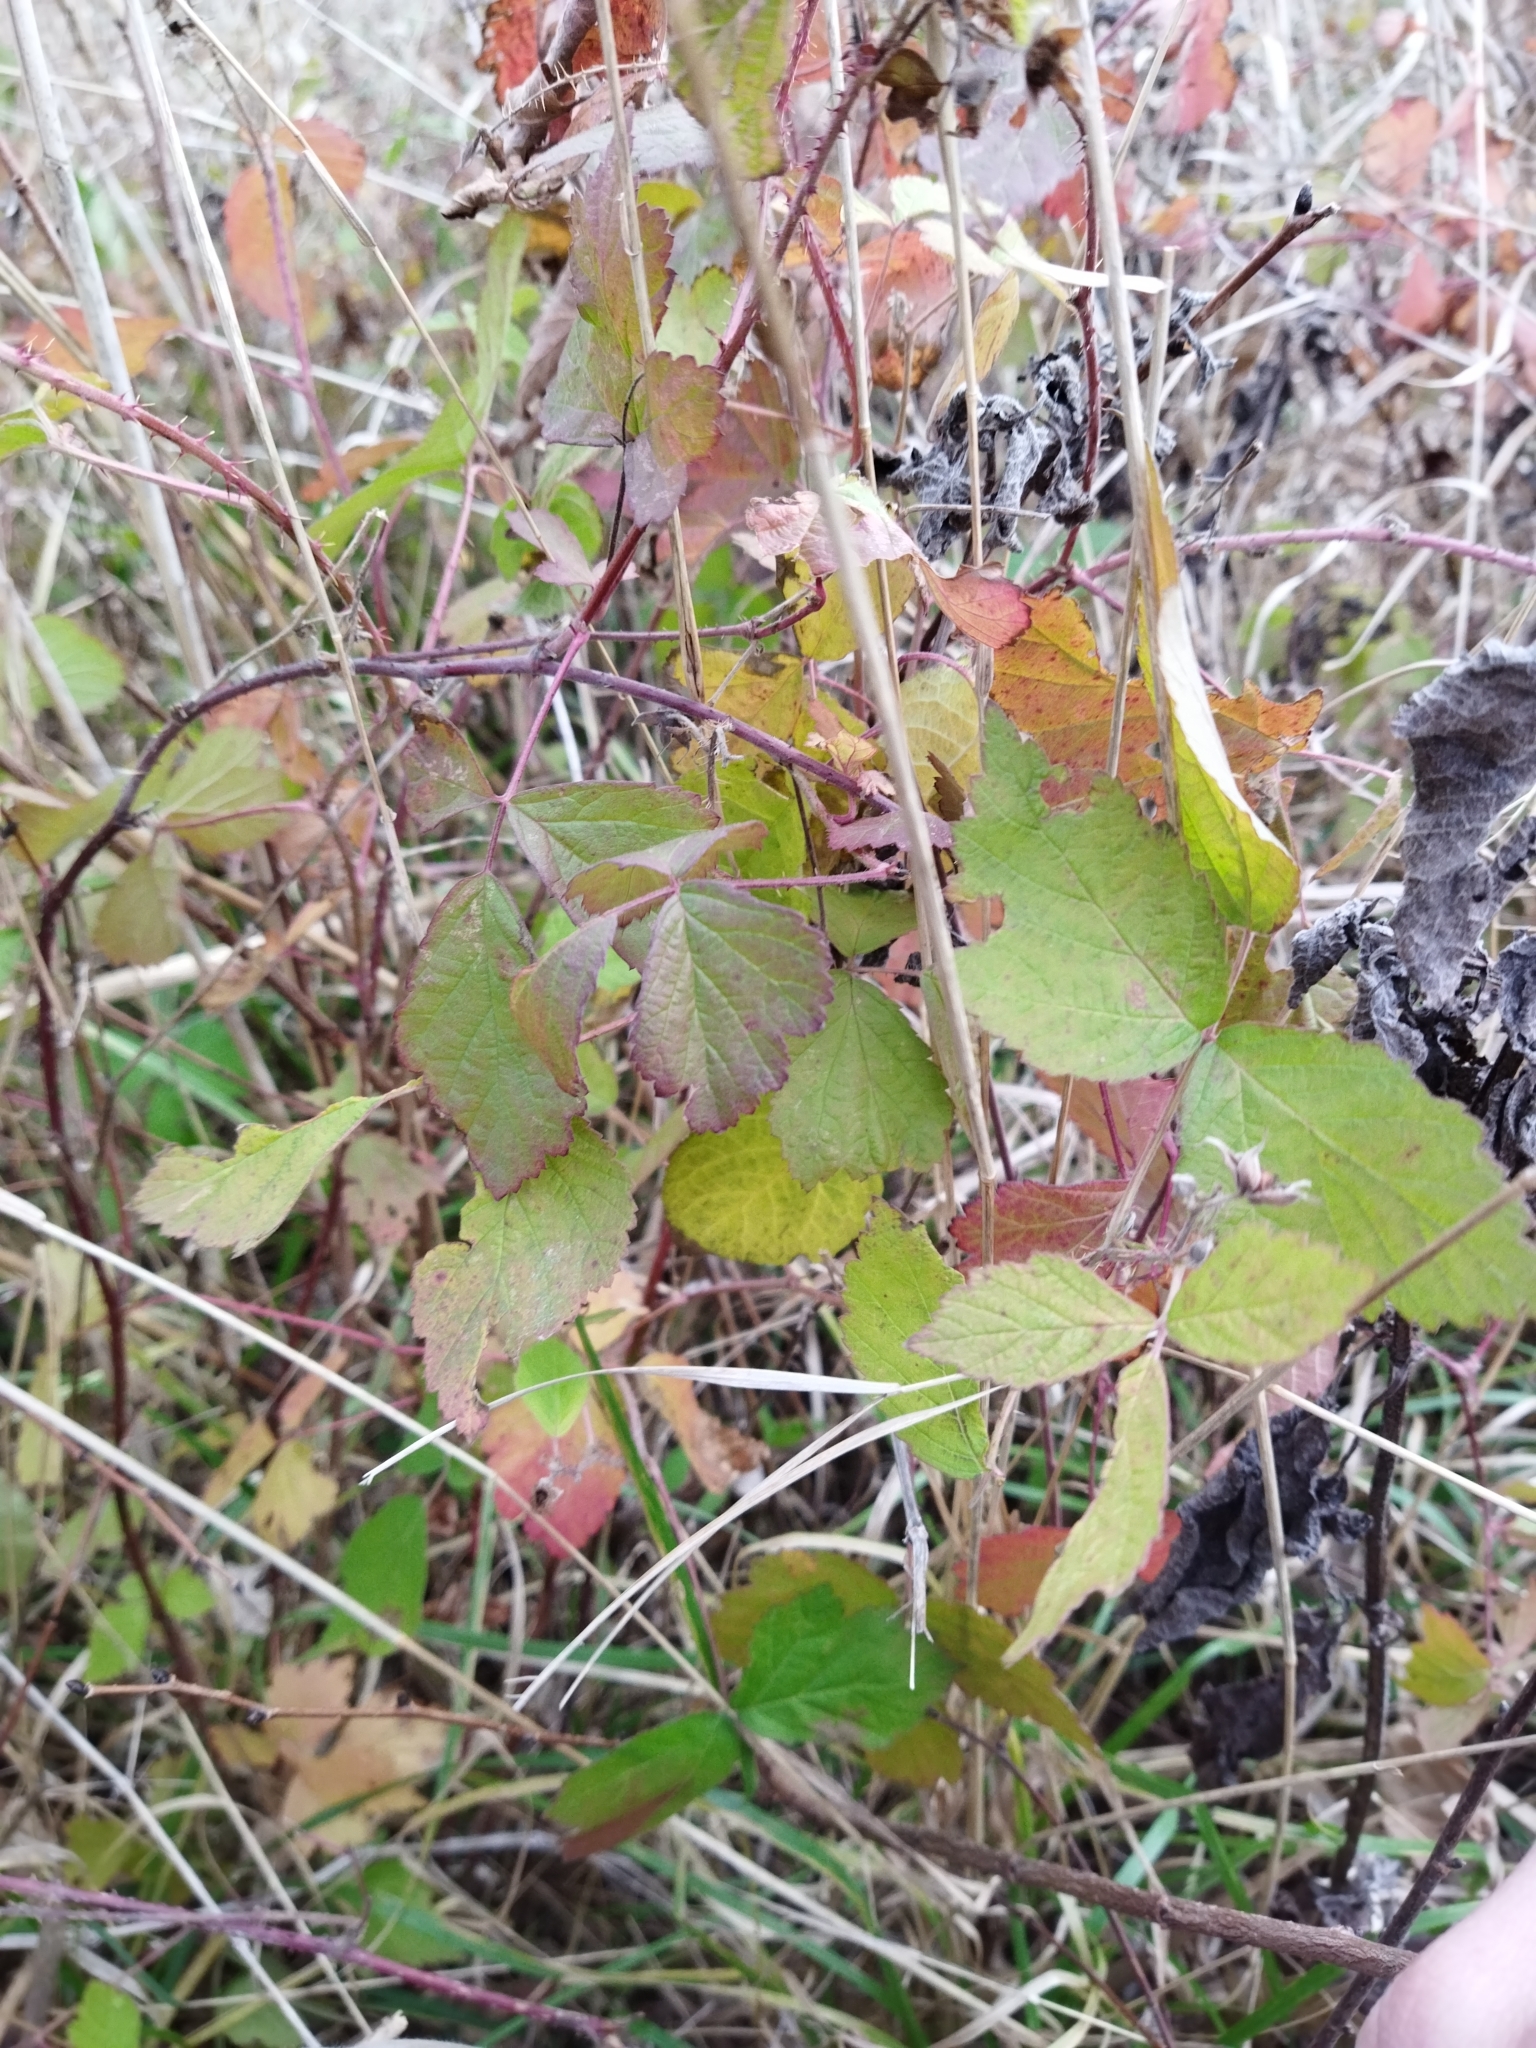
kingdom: Plantae
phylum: Tracheophyta
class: Magnoliopsida
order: Rosales
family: Rosaceae
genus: Rubus
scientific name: Rubus caesius
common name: Dewberry
